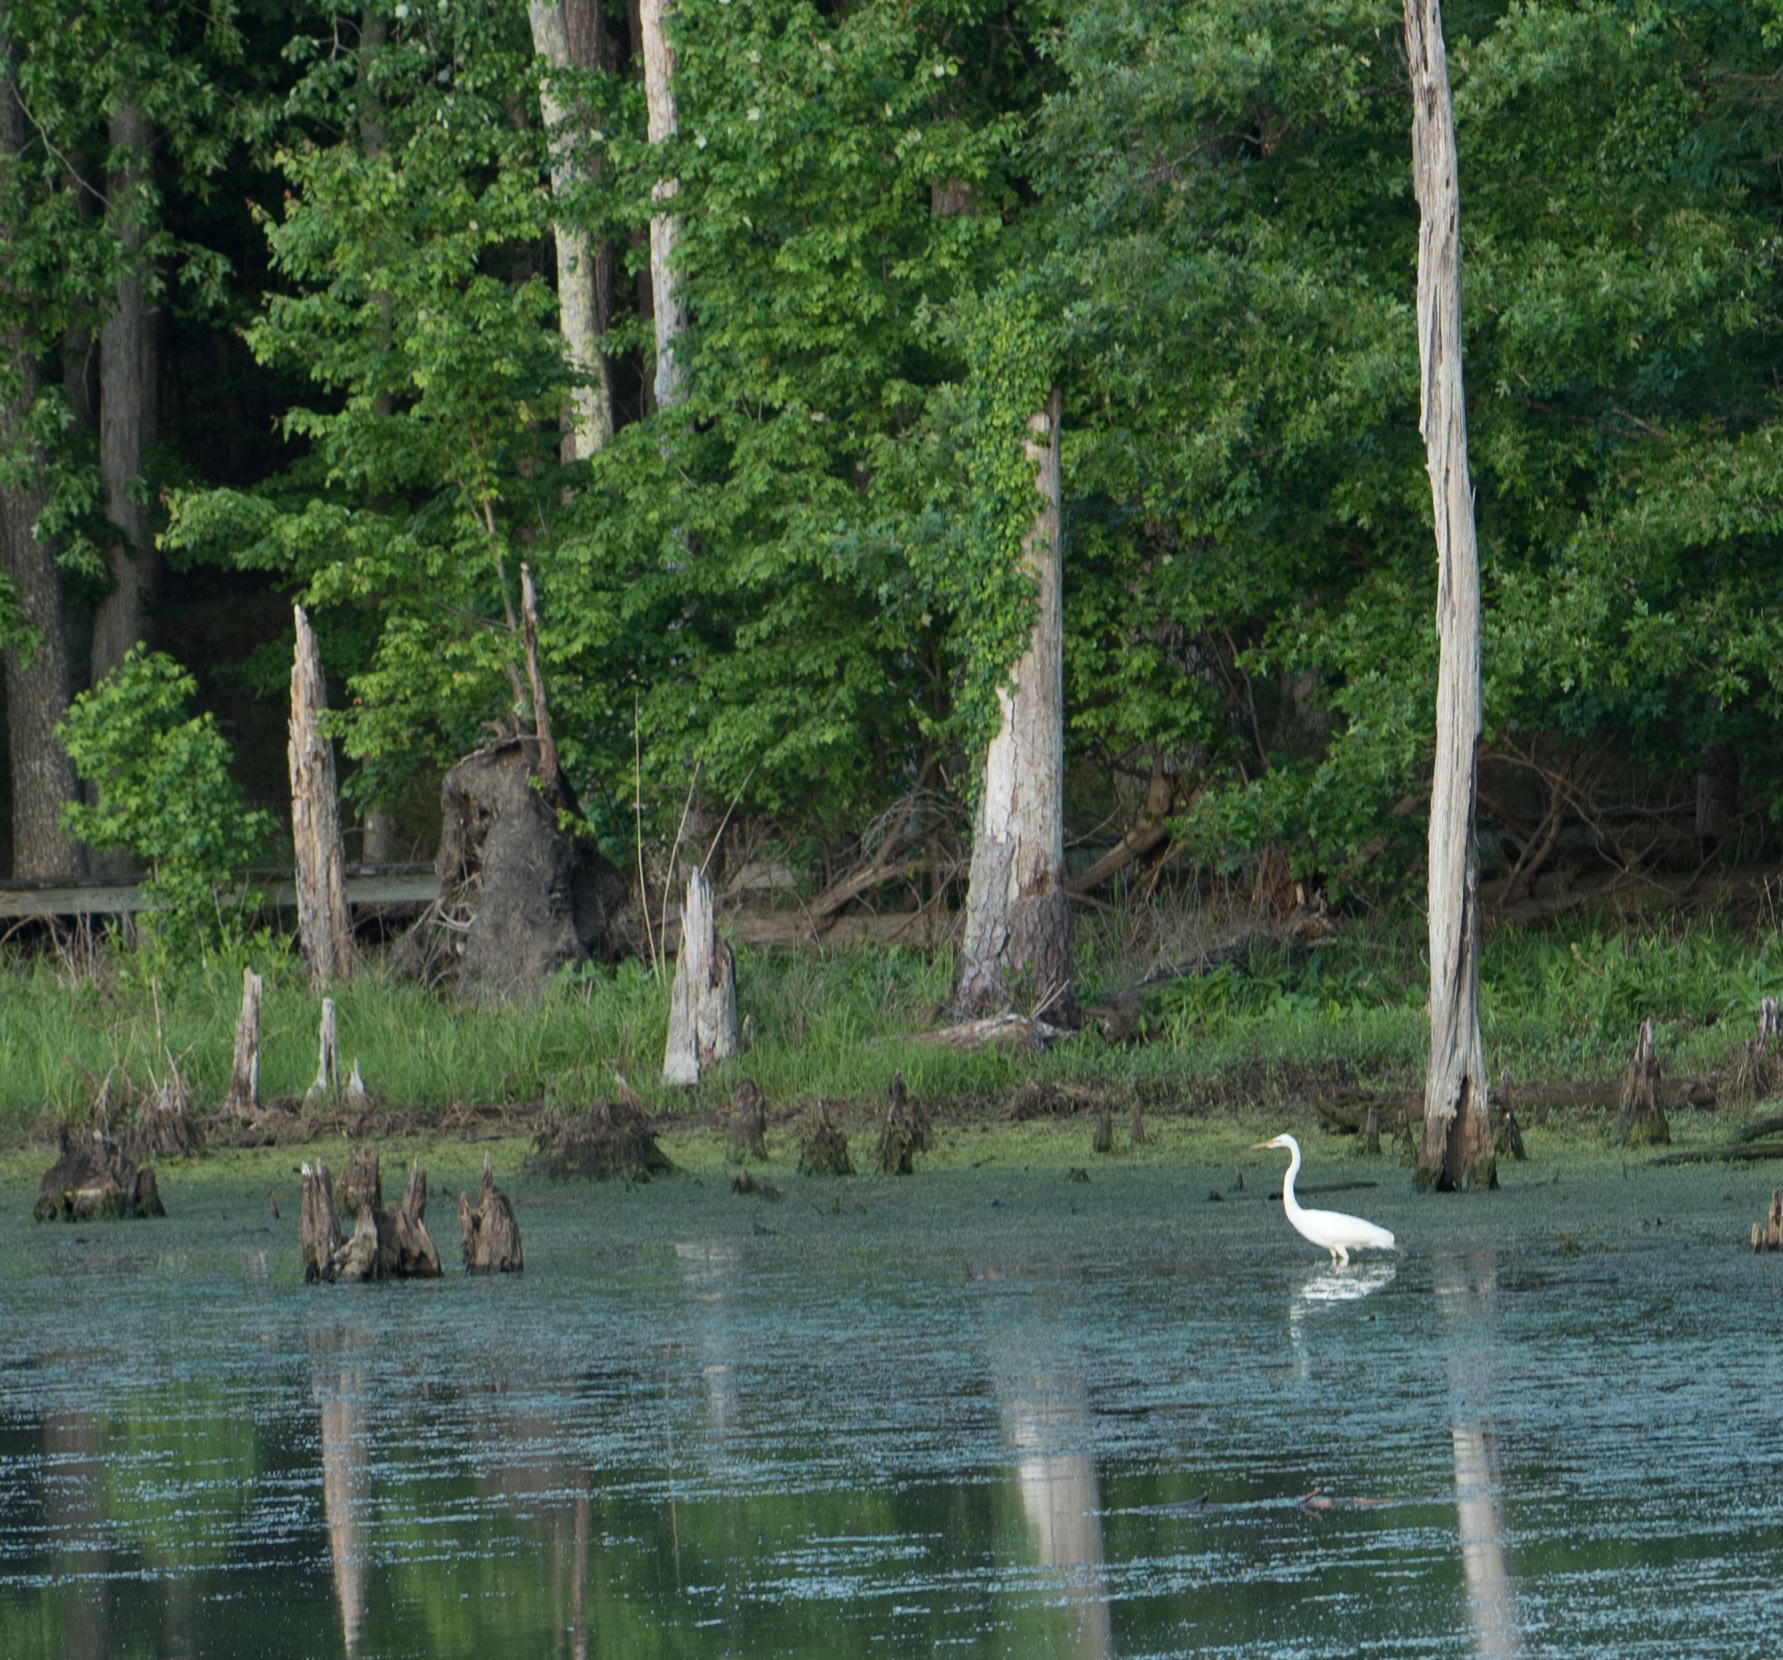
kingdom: Animalia
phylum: Chordata
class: Aves
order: Pelecaniformes
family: Ardeidae
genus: Ardea
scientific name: Ardea alba
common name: Great egret
